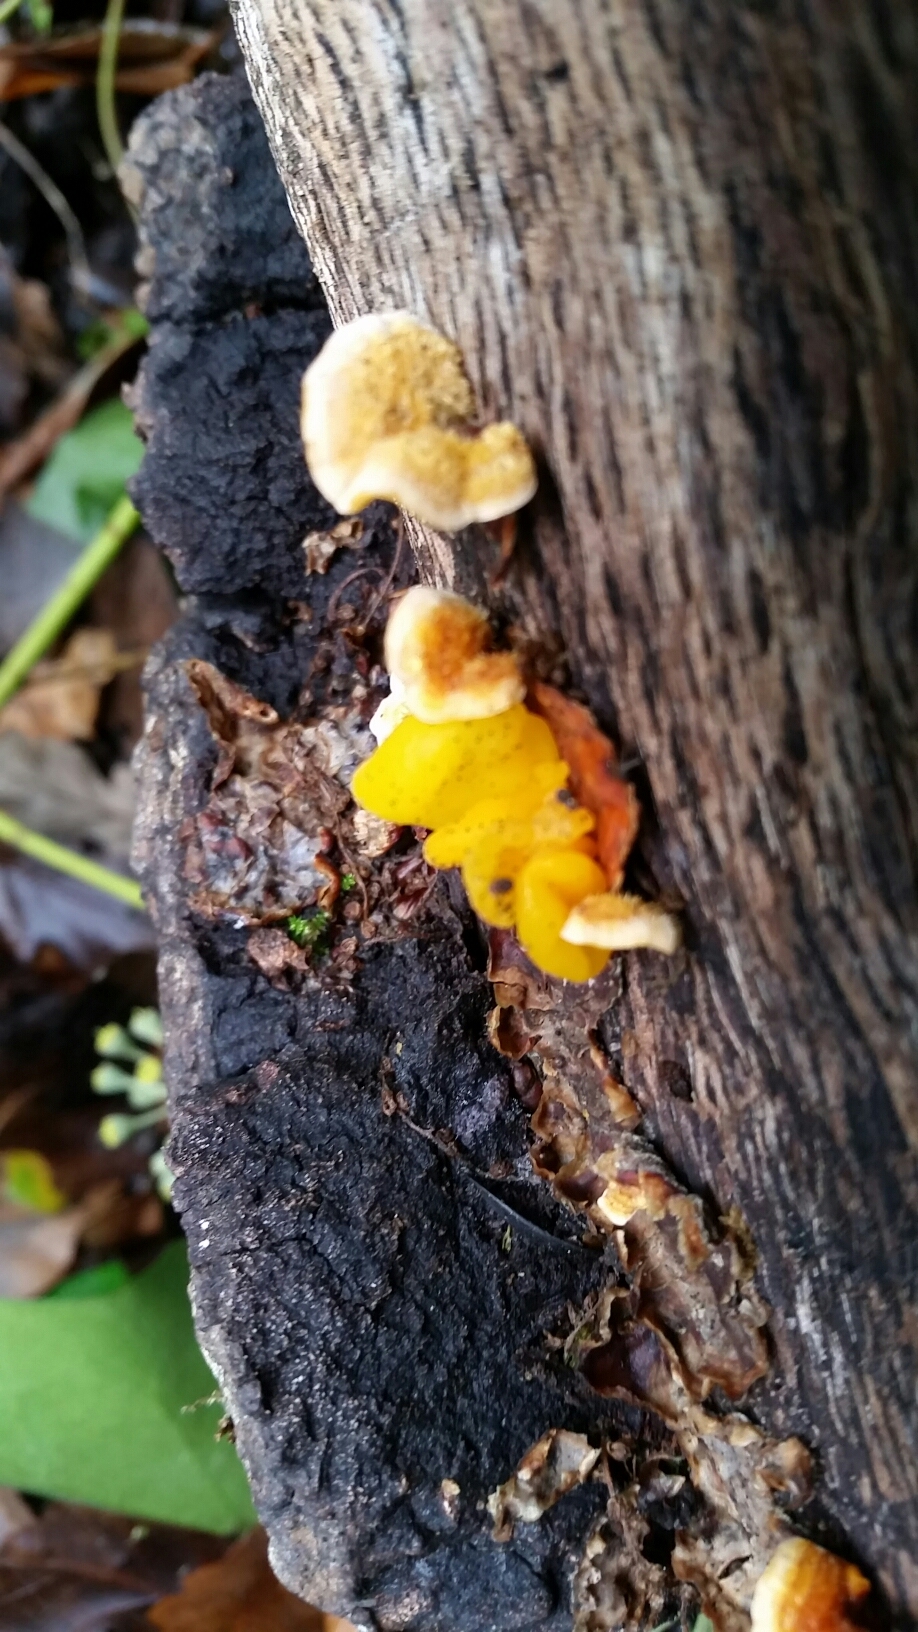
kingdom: Fungi
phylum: Basidiomycota
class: Tremellomycetes
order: Tremellales
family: Naemateliaceae
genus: Naematelia
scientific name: Naematelia aurantia
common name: Golden ear
